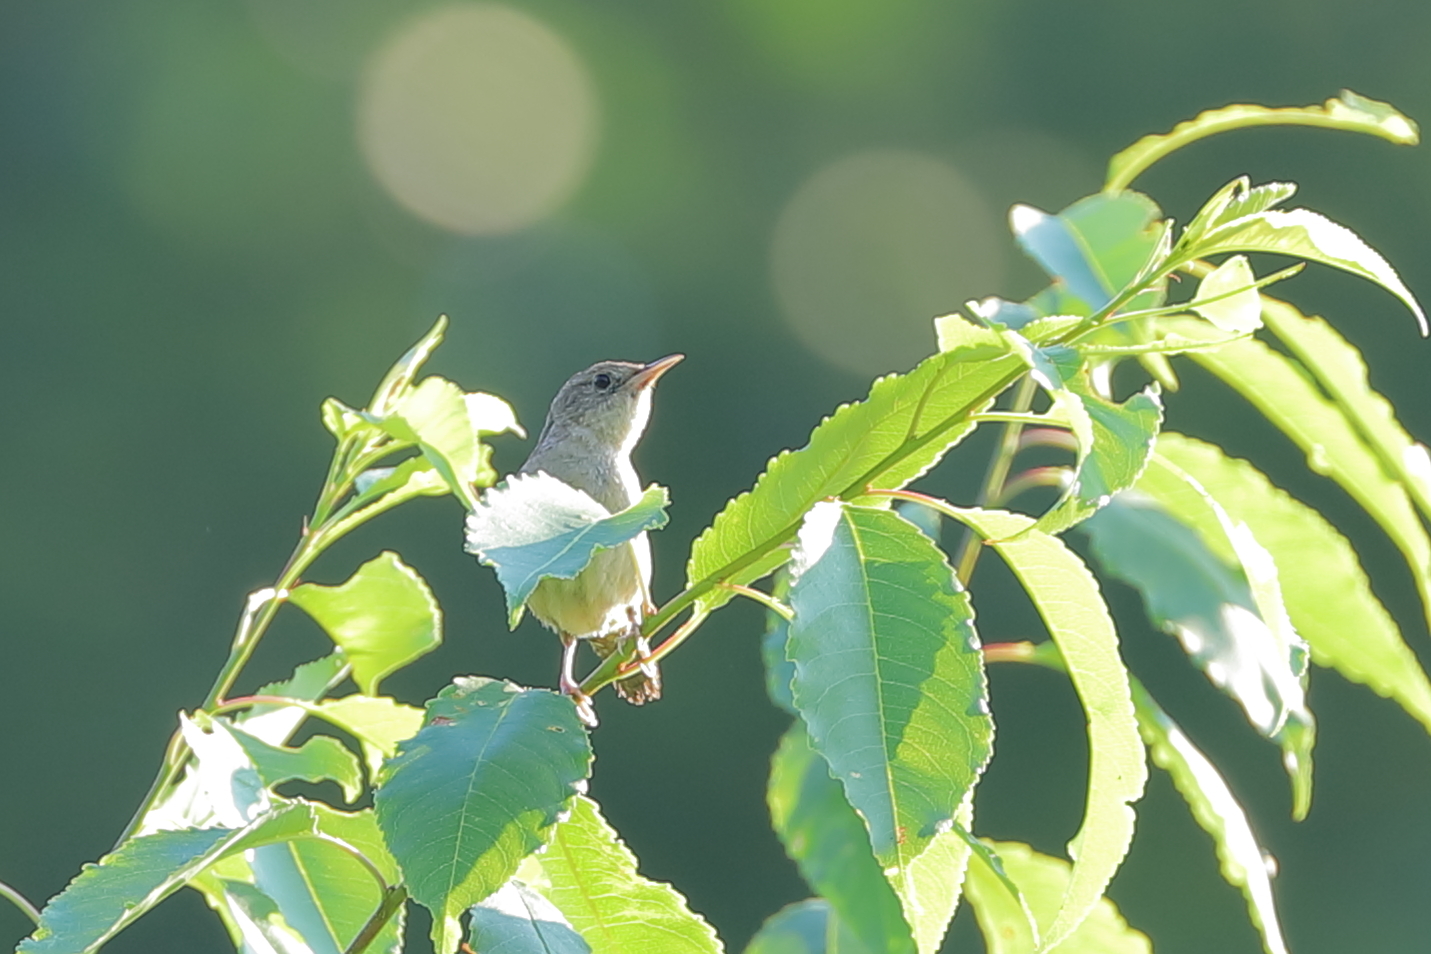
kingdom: Animalia
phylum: Chordata
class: Aves
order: Passeriformes
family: Troglodytidae
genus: Troglodytes
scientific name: Troglodytes aedon
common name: House wren
